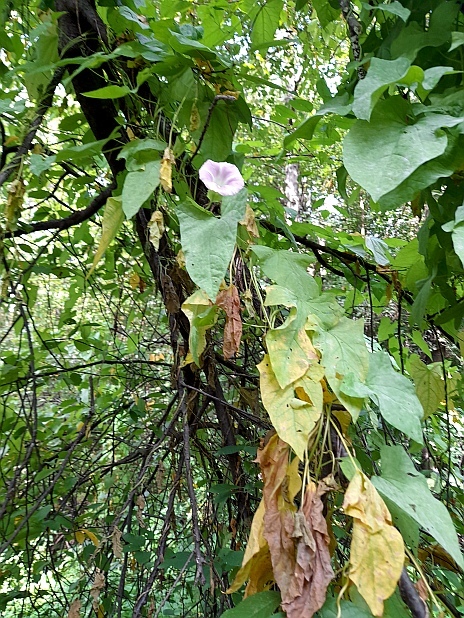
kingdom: Plantae
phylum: Tracheophyta
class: Magnoliopsida
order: Solanales
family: Convolvulaceae
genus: Calystegia
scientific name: Calystegia sepium
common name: Hedge bindweed
